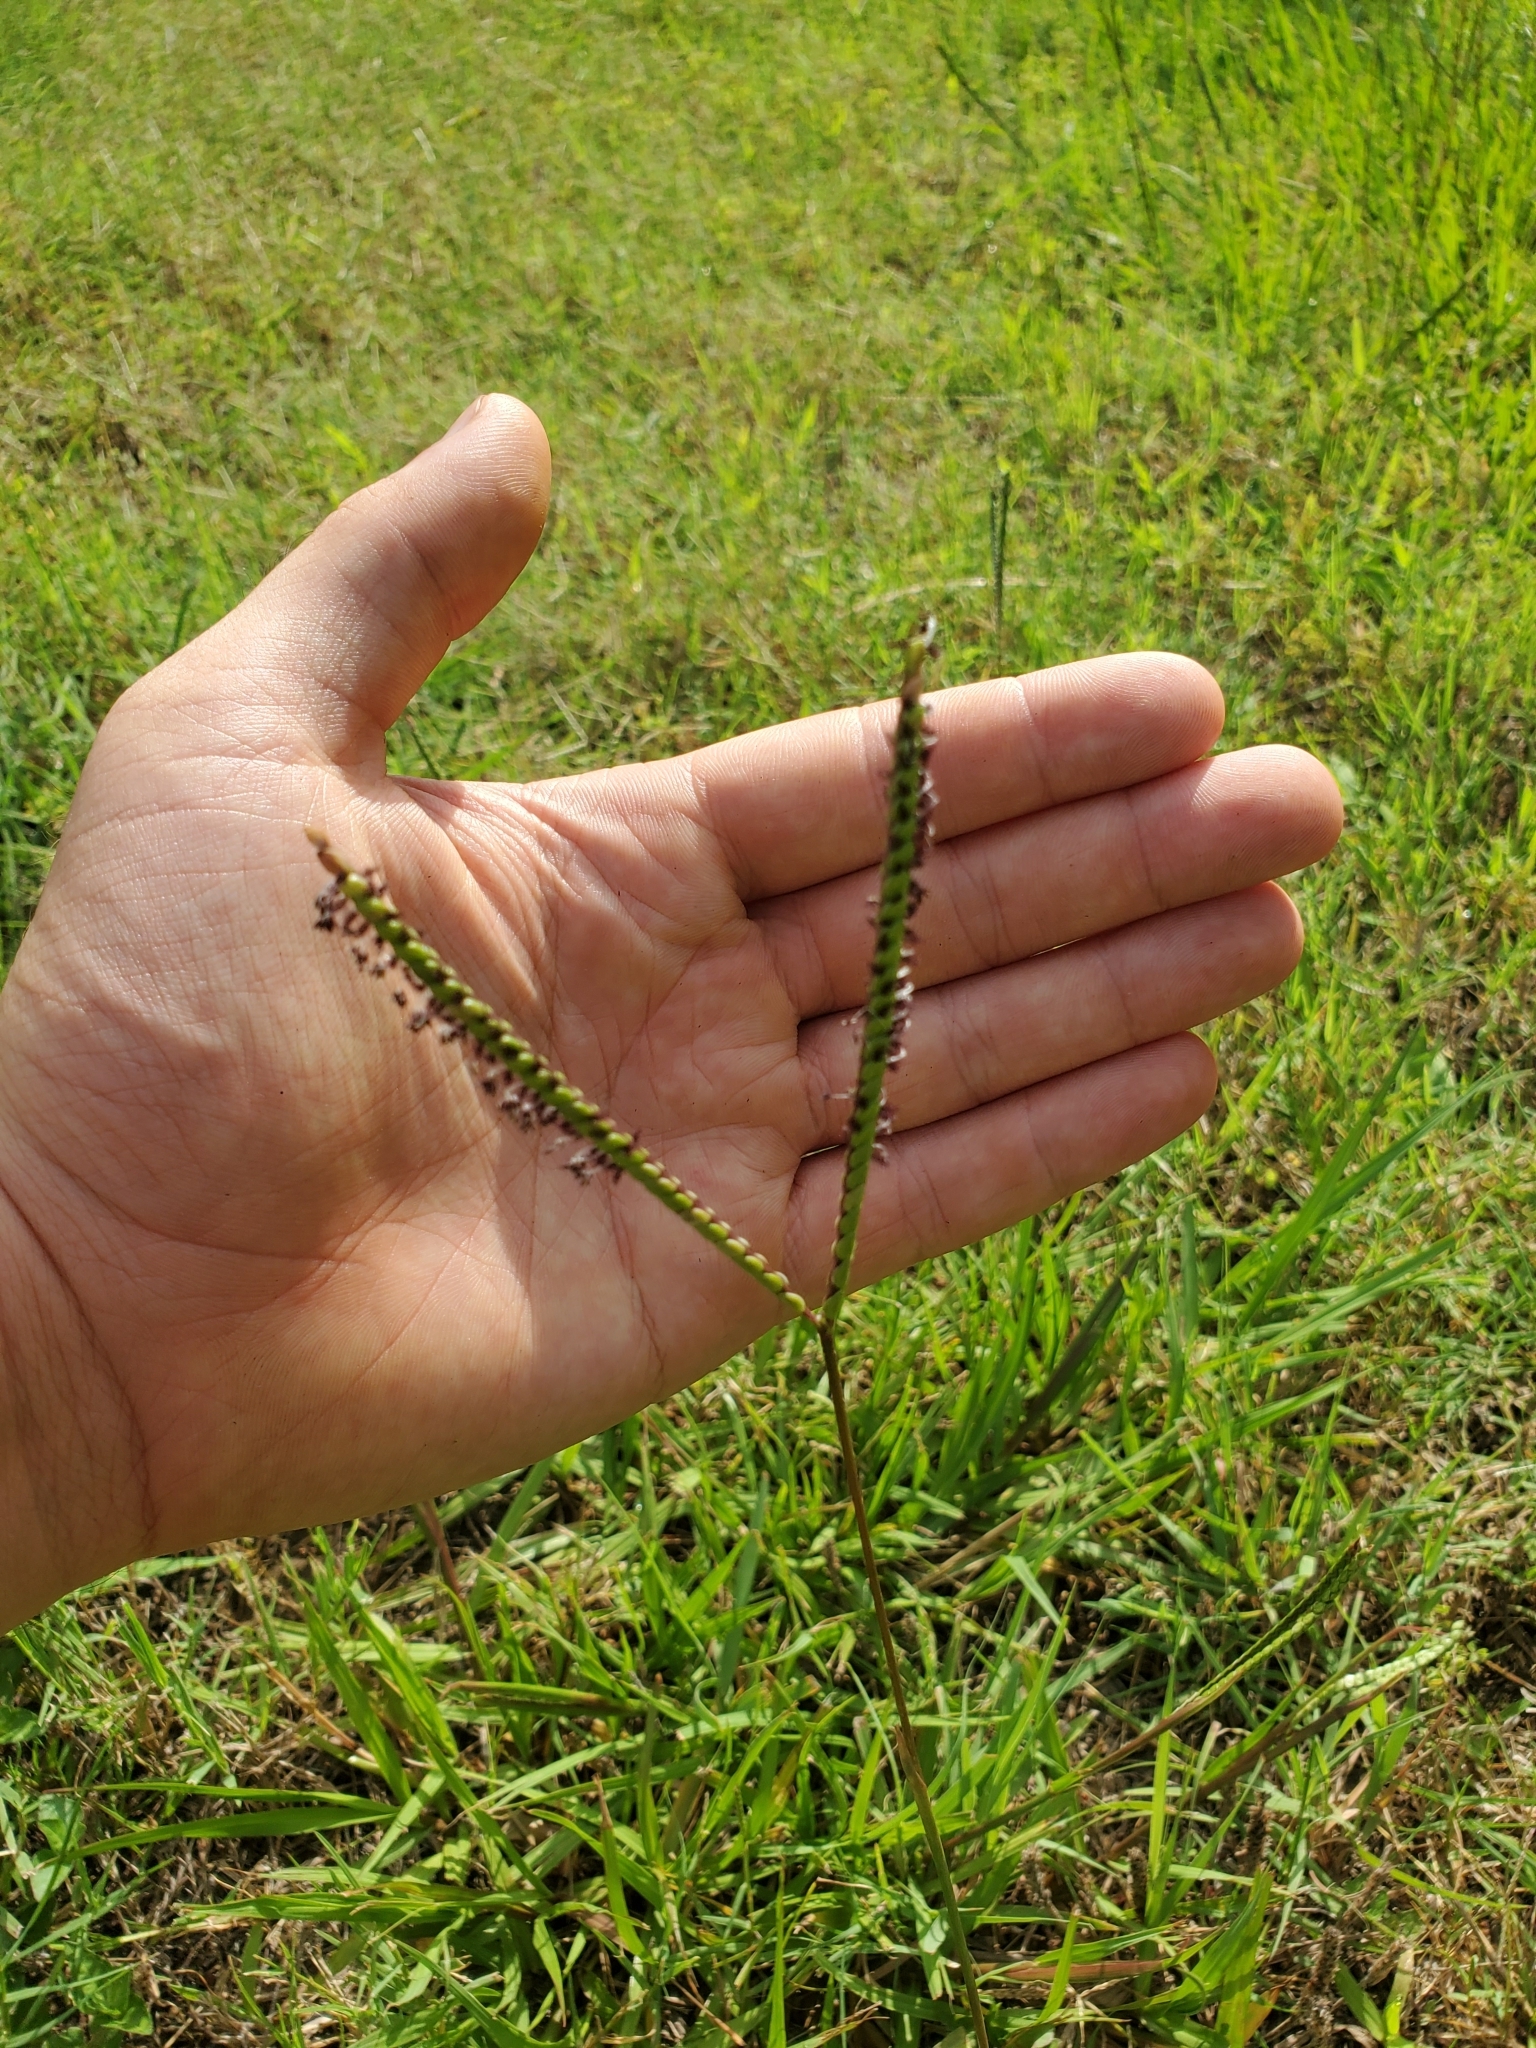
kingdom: Plantae
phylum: Tracheophyta
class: Liliopsida
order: Poales
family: Poaceae
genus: Paspalum
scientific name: Paspalum notatum
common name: Bahiagrass
